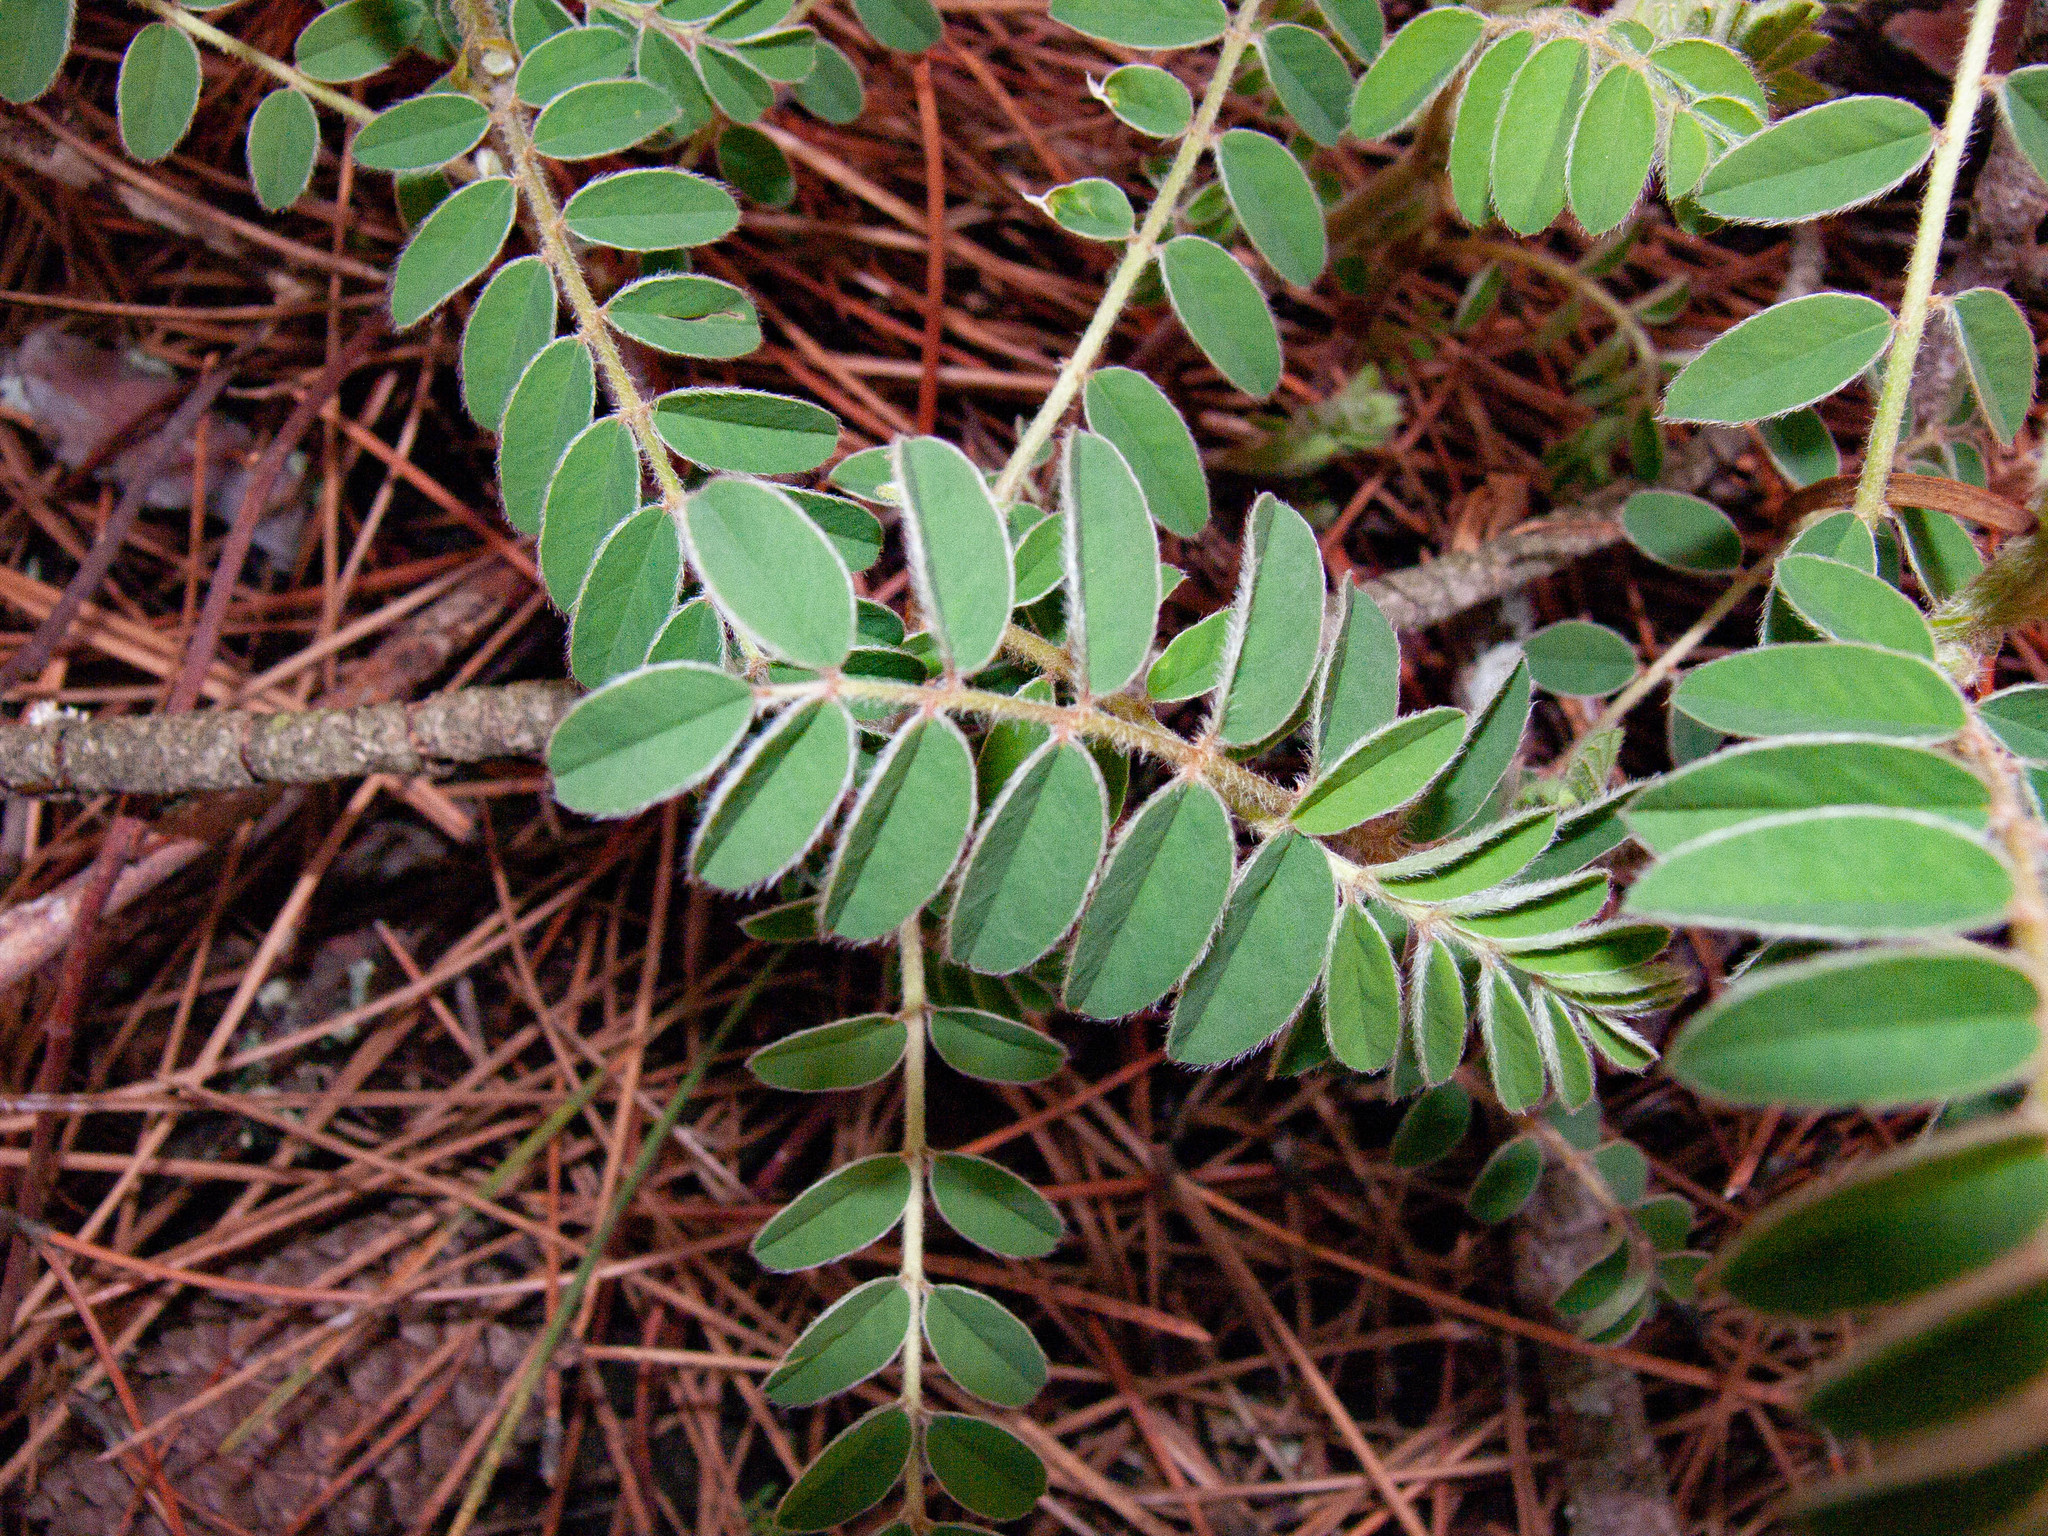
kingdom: Plantae
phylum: Tracheophyta
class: Magnoliopsida
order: Fabales
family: Fabaceae
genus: Erophaca
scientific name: Erophaca baetica
